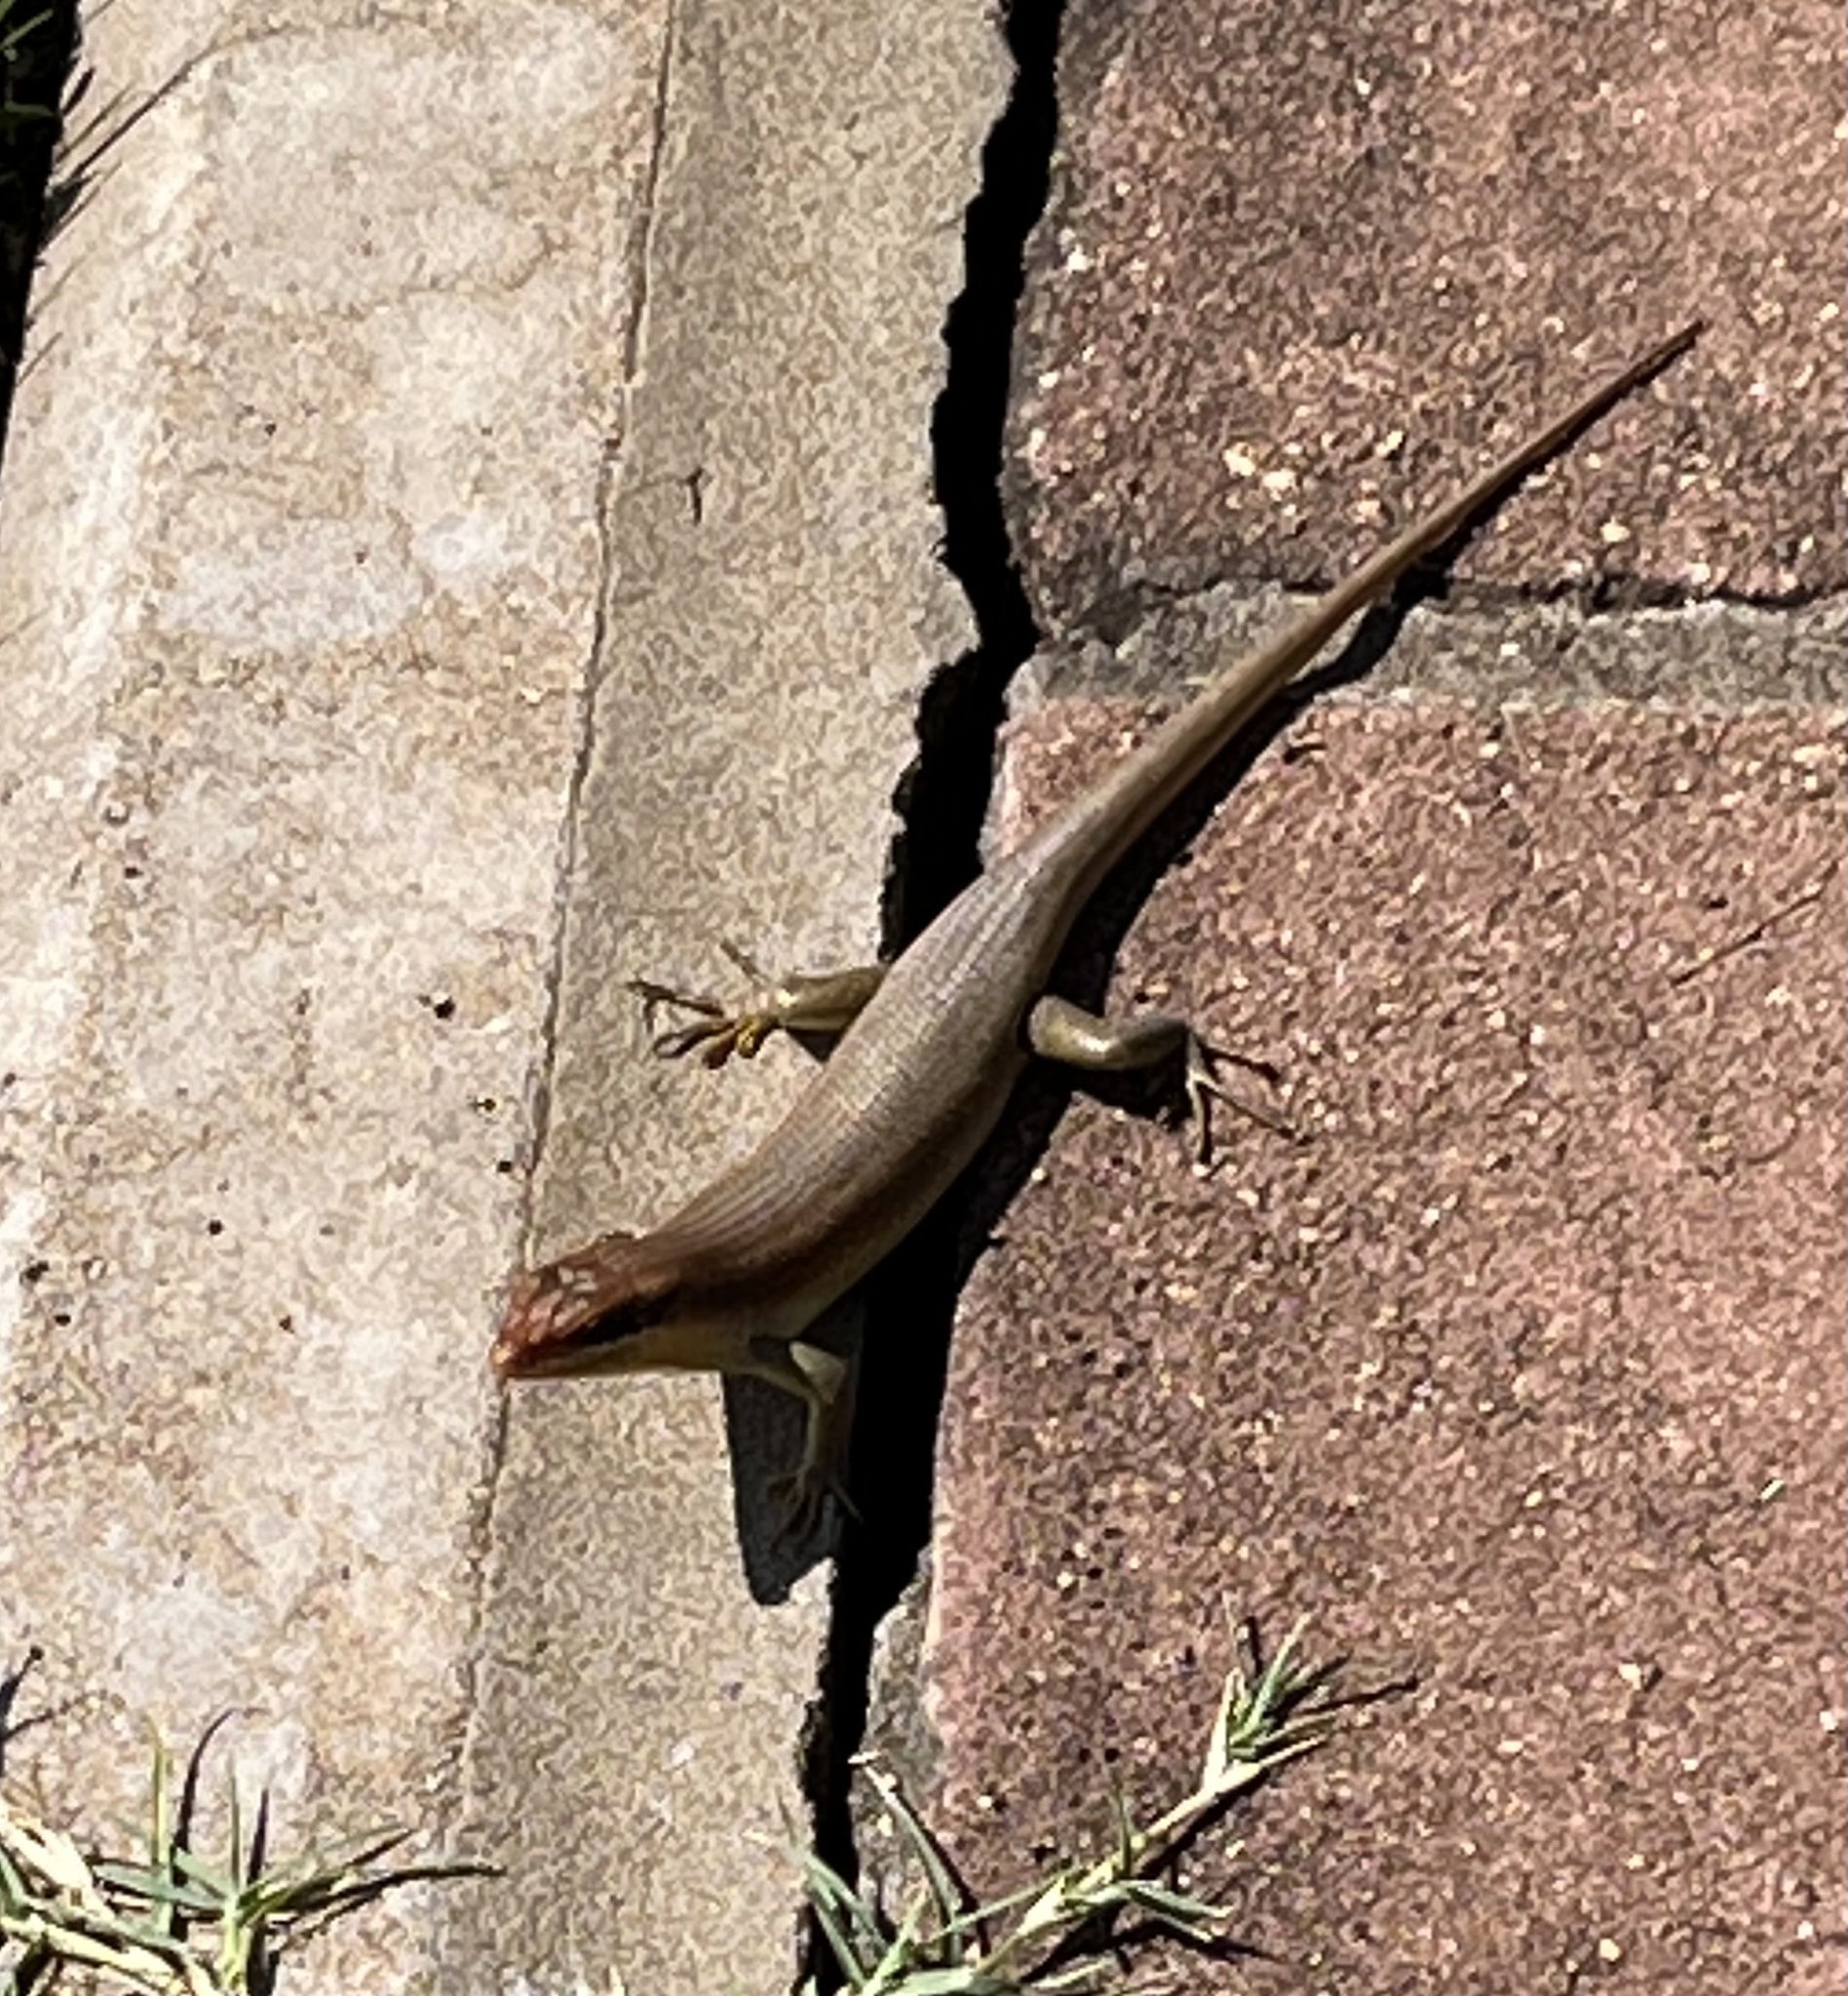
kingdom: Animalia
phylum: Chordata
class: Squamata
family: Scincidae
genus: Trachylepis
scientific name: Trachylepis wahlbergii
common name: Wahlberg’s striped skink
